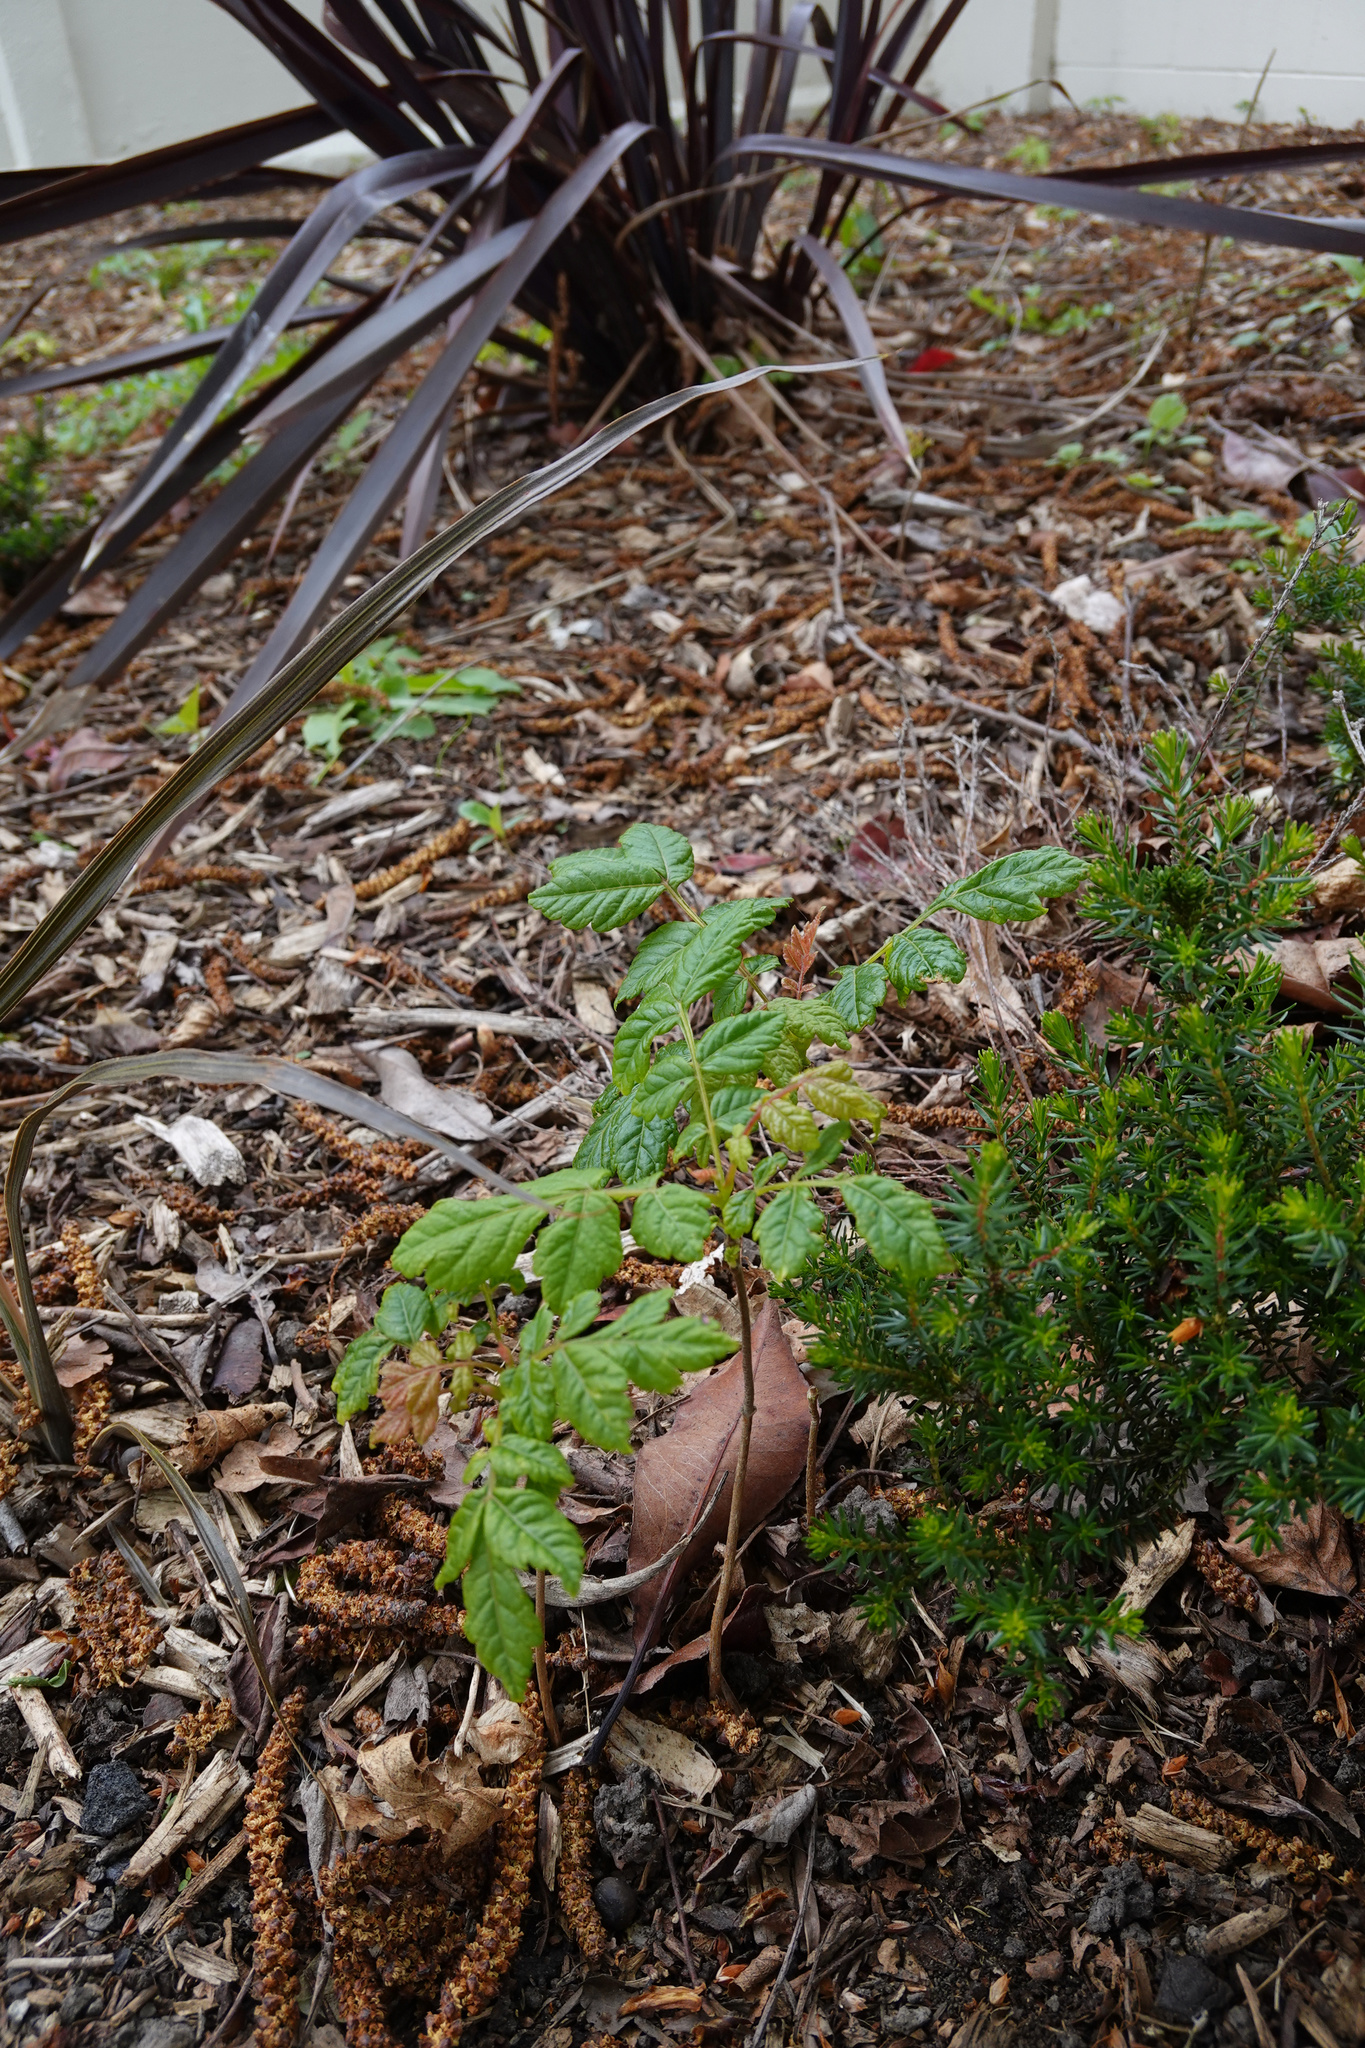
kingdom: Plantae
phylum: Tracheophyta
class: Magnoliopsida
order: Sapindales
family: Sapindaceae
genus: Koelreuteria
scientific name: Koelreuteria paniculata
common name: Pride-of-india
